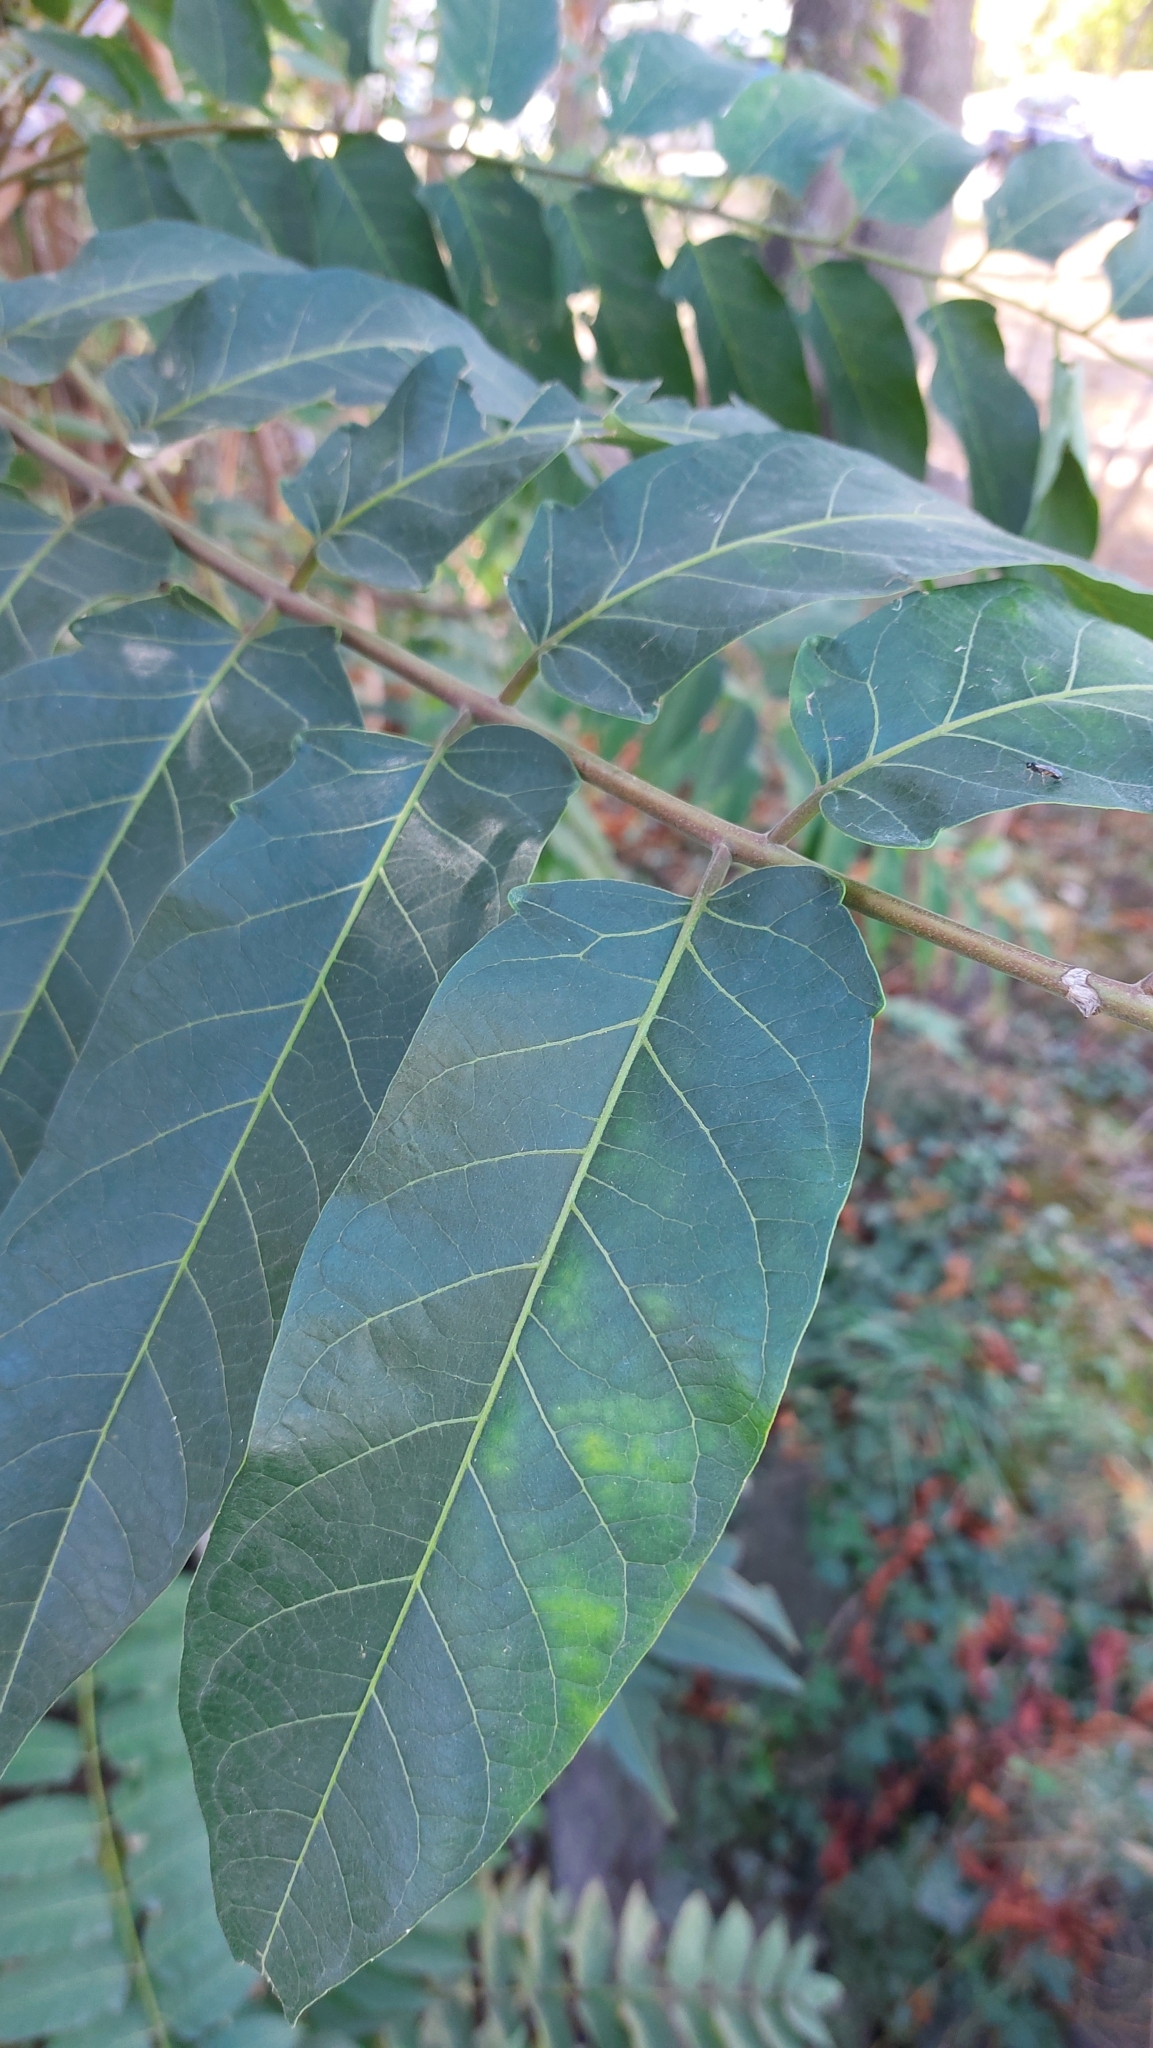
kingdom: Plantae
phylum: Tracheophyta
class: Magnoliopsida
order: Sapindales
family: Simaroubaceae
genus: Ailanthus
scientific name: Ailanthus altissima
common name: Tree-of-heaven
